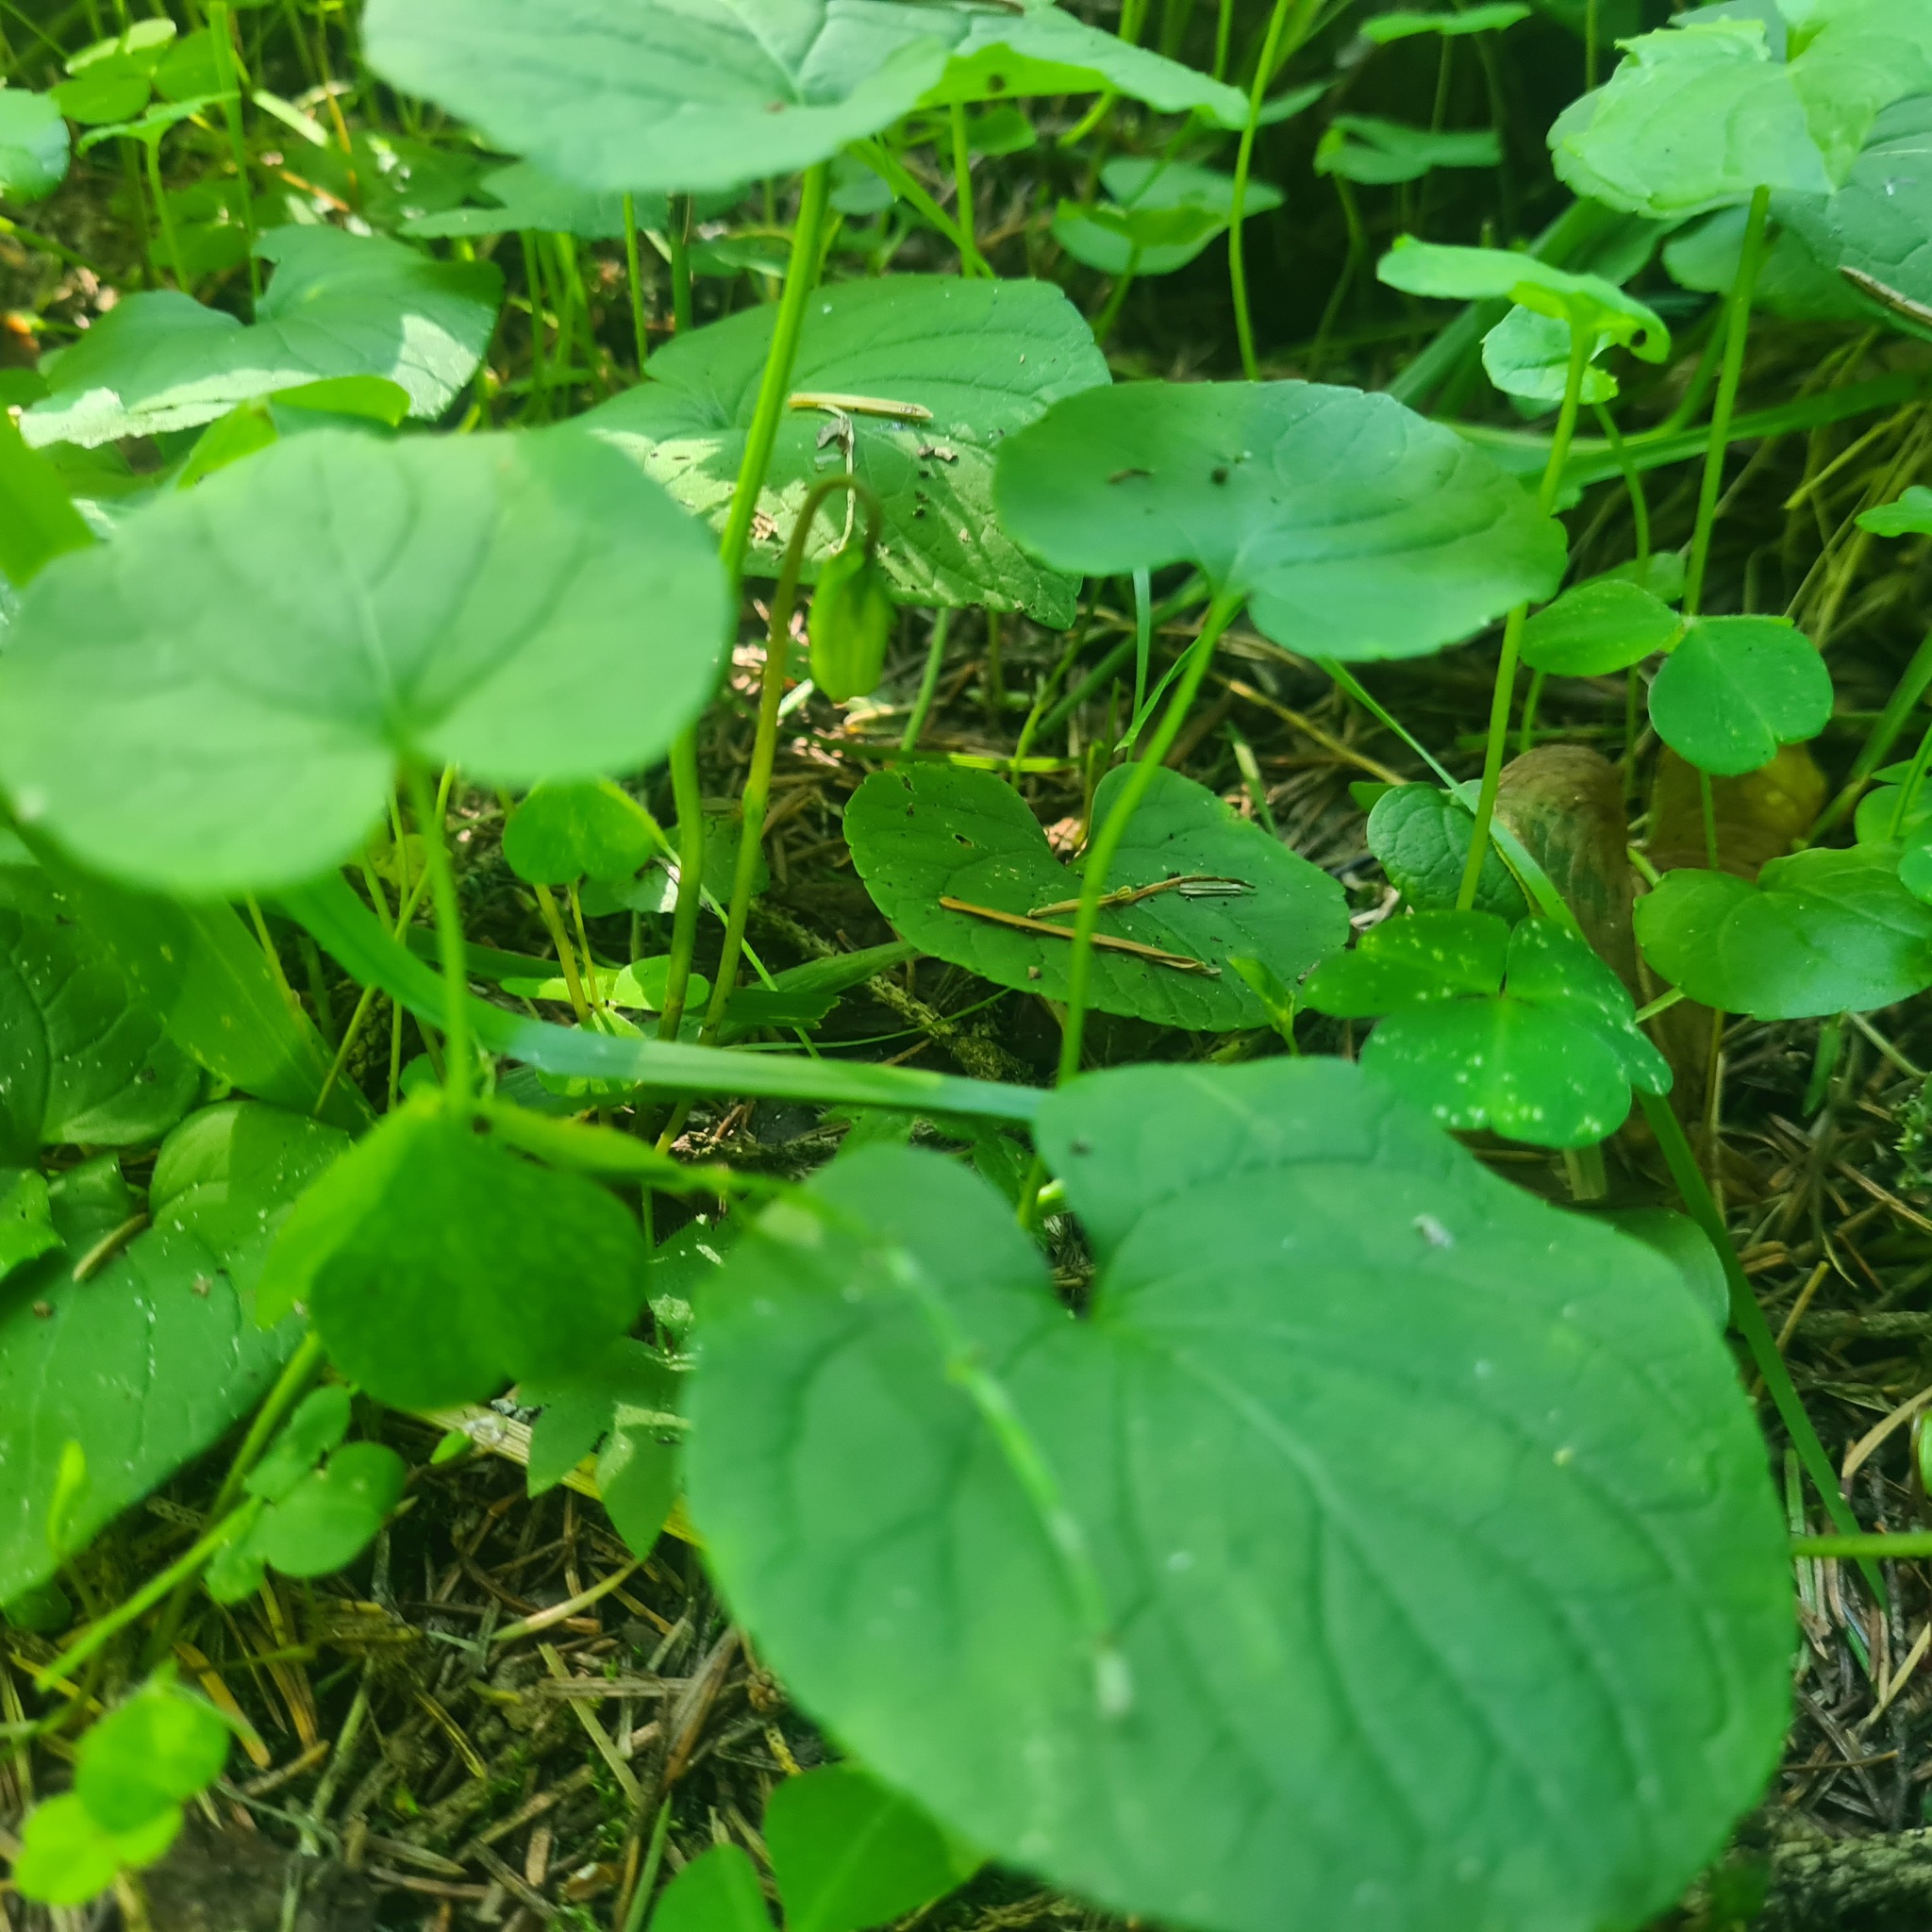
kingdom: Plantae
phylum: Tracheophyta
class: Magnoliopsida
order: Malpighiales
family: Violaceae
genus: Viola
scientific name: Viola mirabilis
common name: Wonder violet
